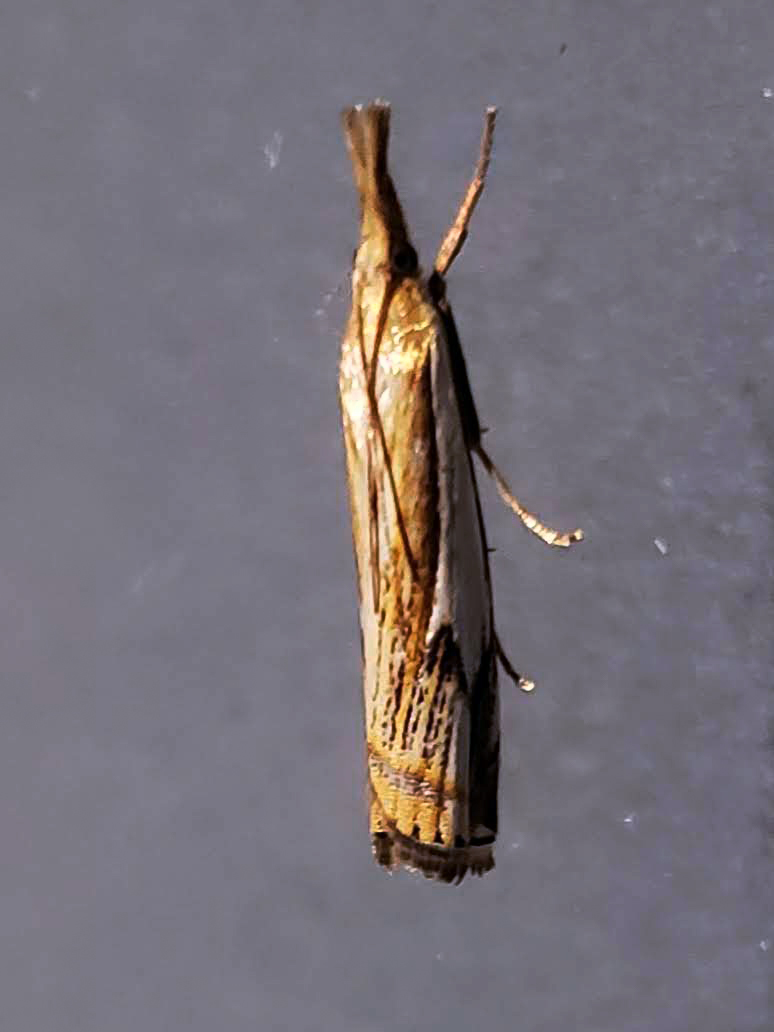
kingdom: Animalia
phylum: Arthropoda
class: Insecta
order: Lepidoptera
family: Crambidae
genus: Crambus
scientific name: Crambus agitatellus
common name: Double-banded grass-veneer
